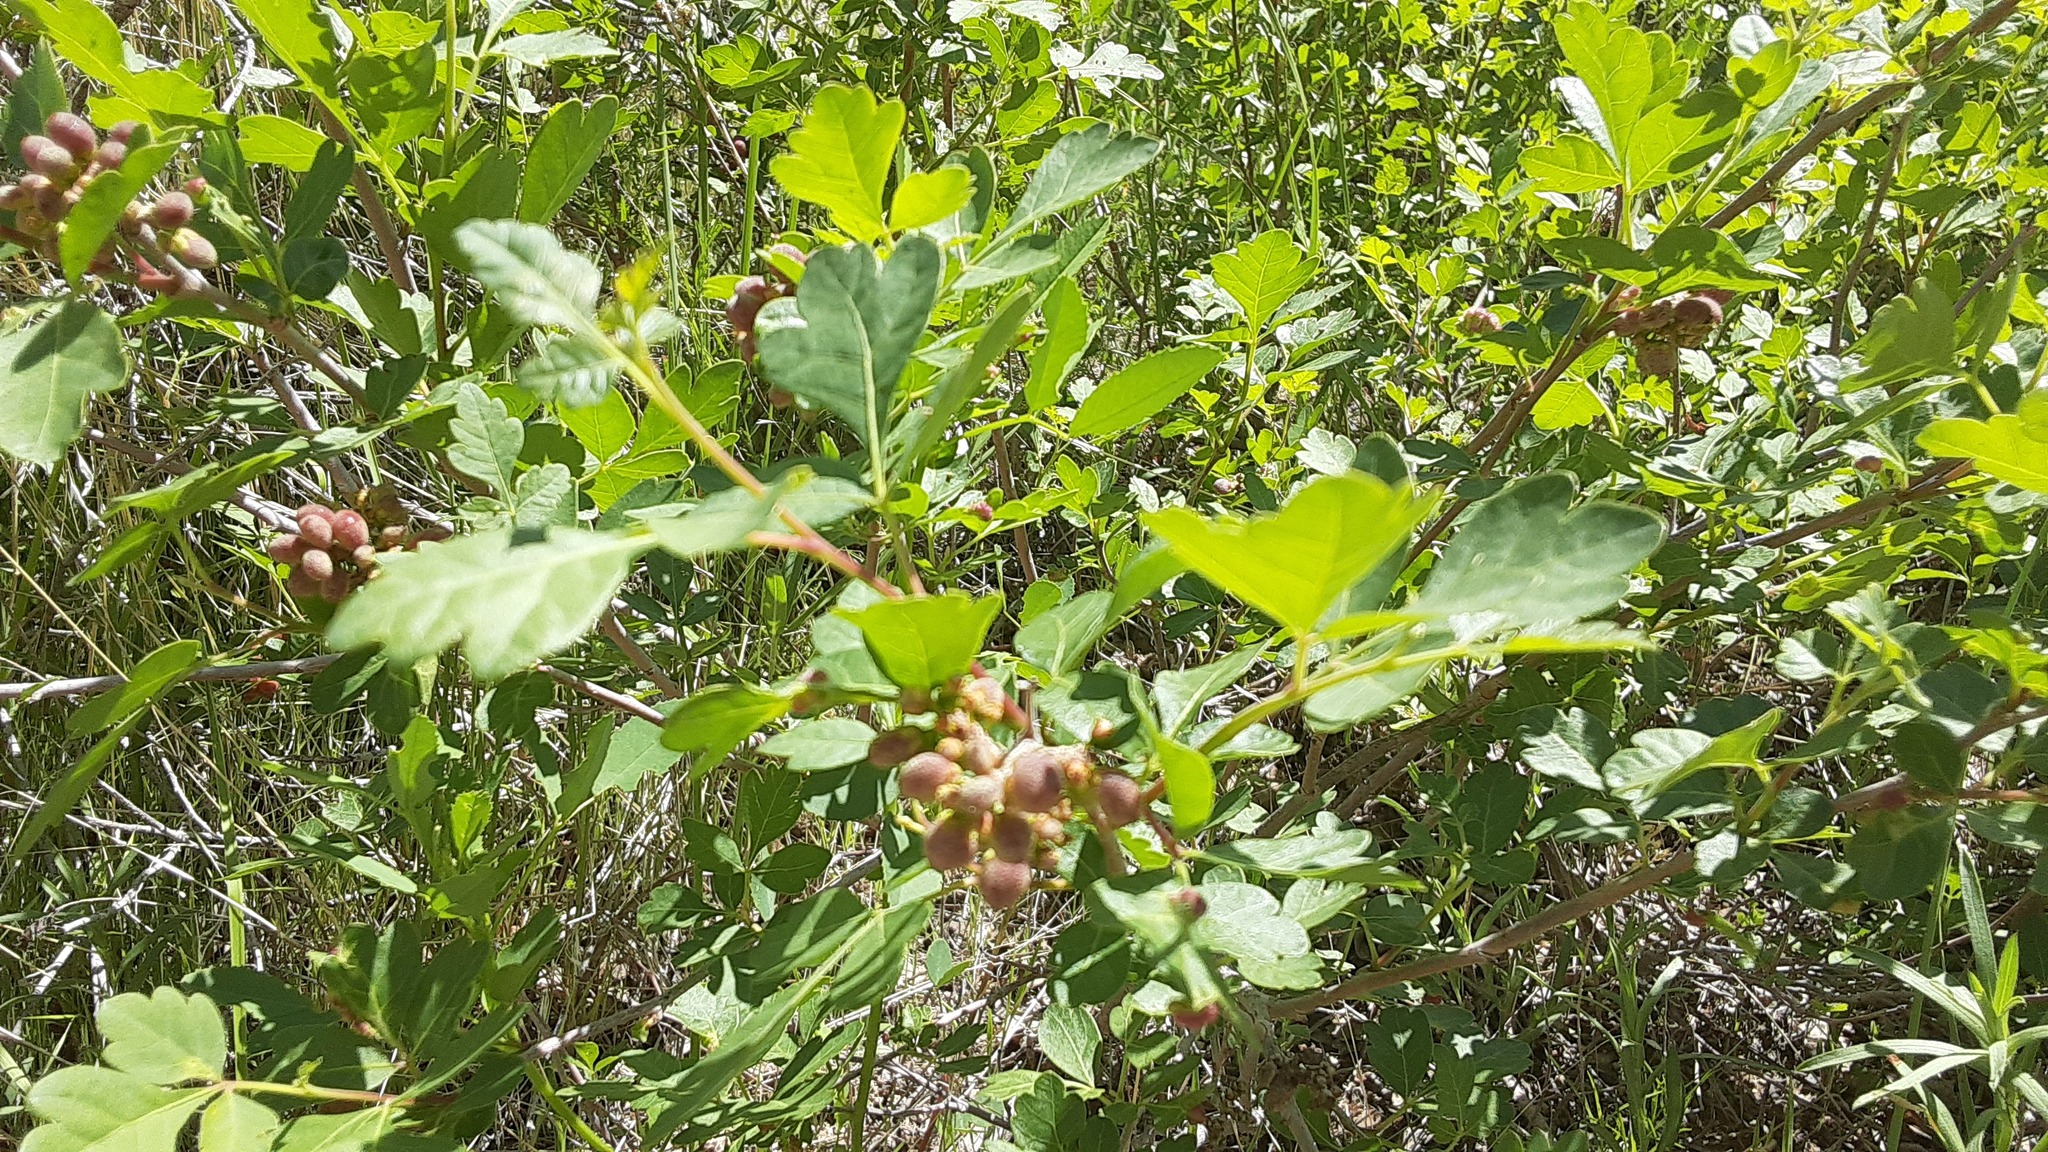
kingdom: Plantae
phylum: Tracheophyta
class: Magnoliopsida
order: Sapindales
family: Anacardiaceae
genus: Rhus
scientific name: Rhus aromatica
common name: Aromatic sumac
